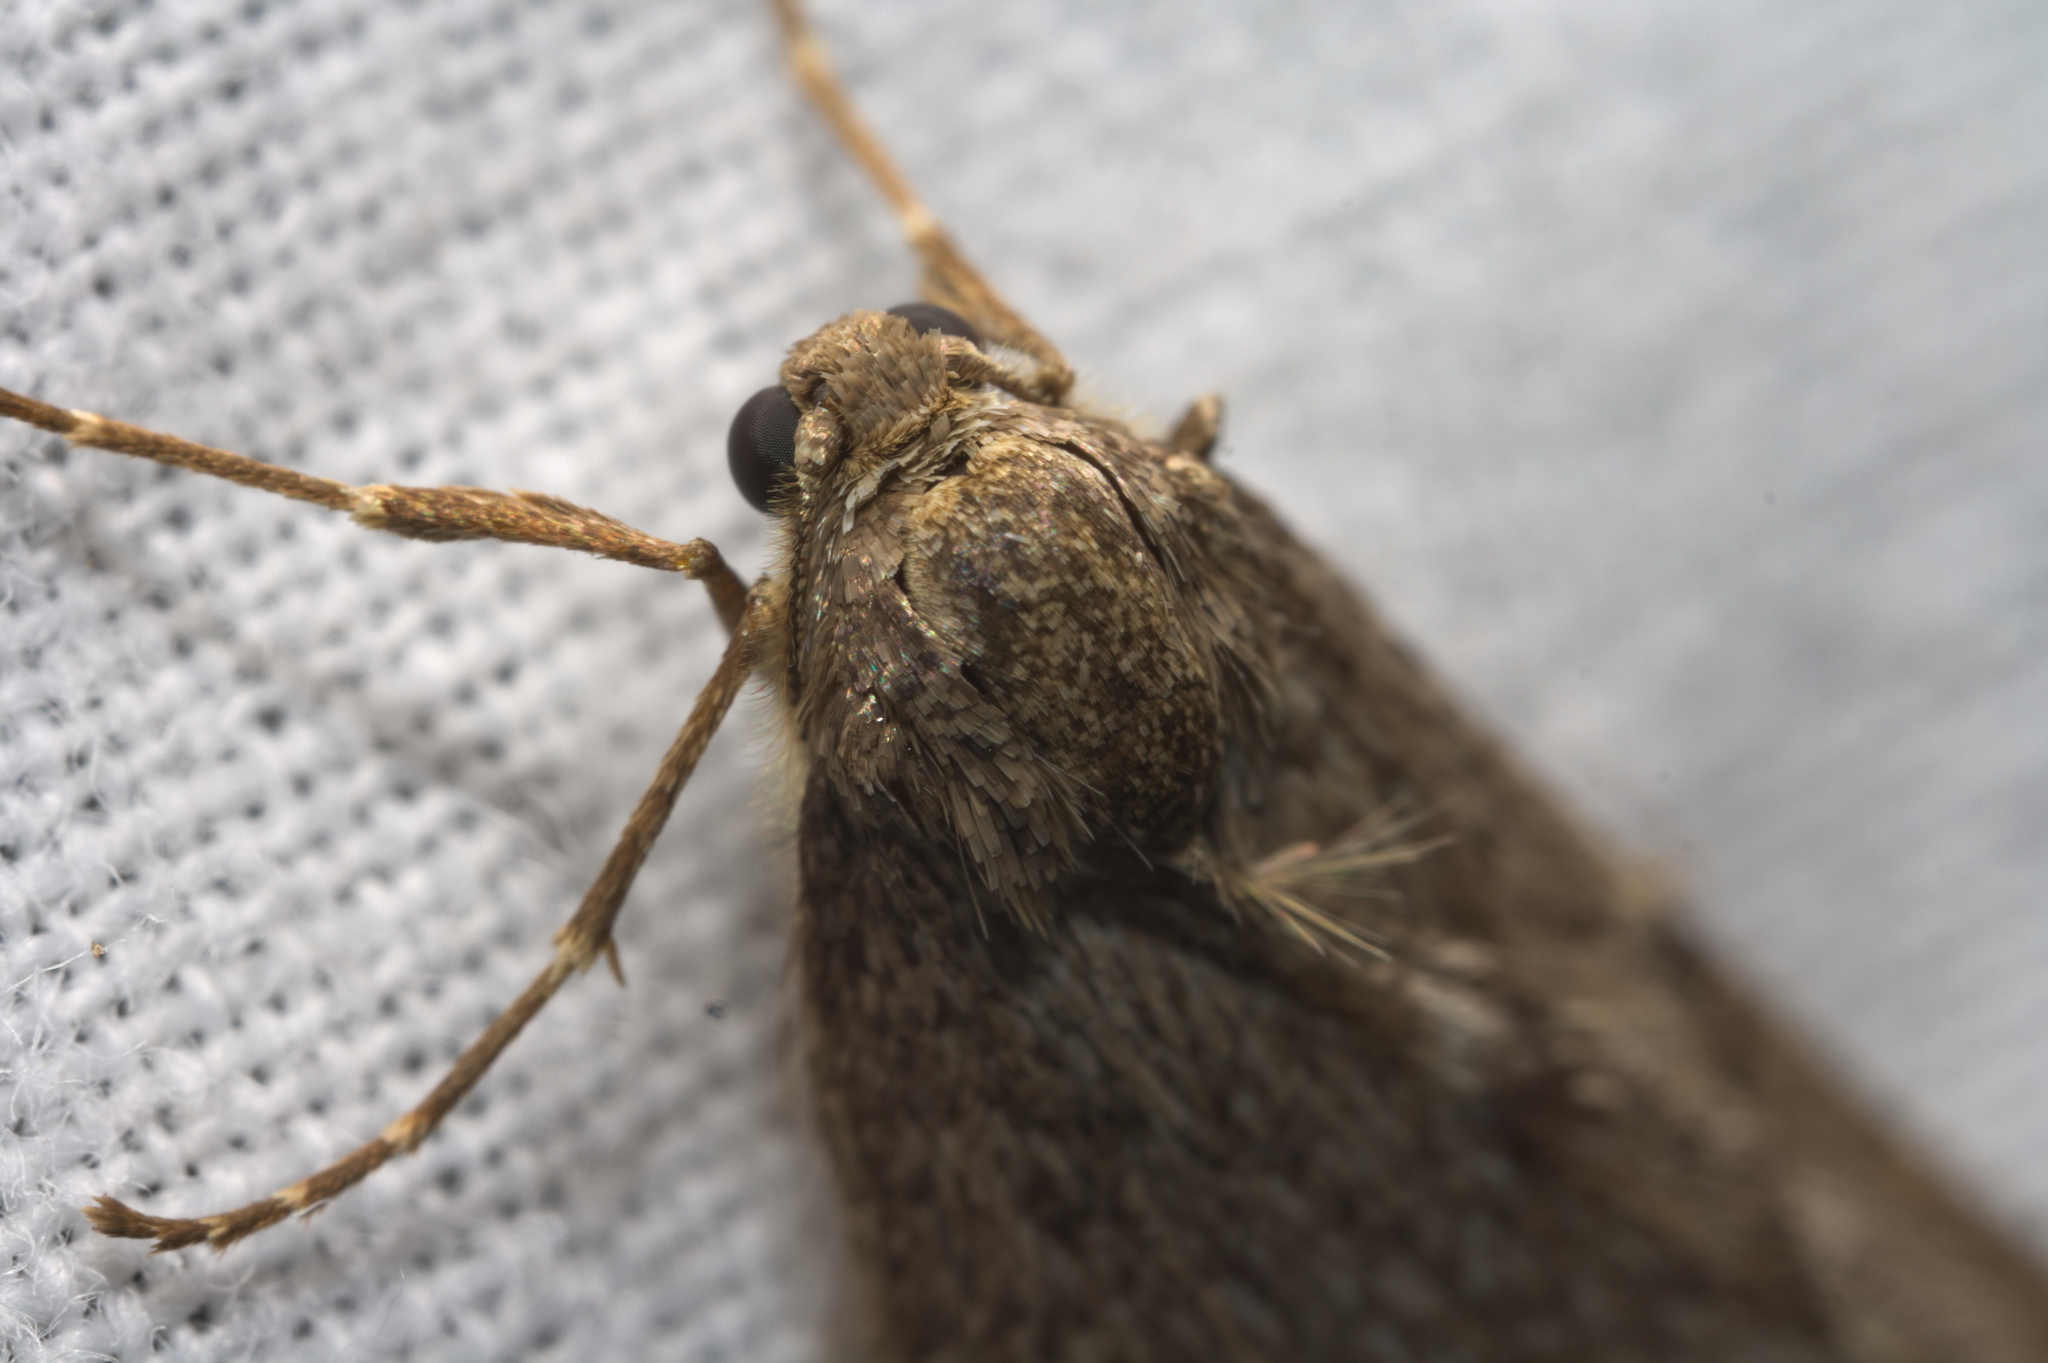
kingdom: Animalia
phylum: Arthropoda
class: Insecta
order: Lepidoptera
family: Geometridae
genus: Alsophila
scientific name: Alsophila aescularia
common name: March moth
